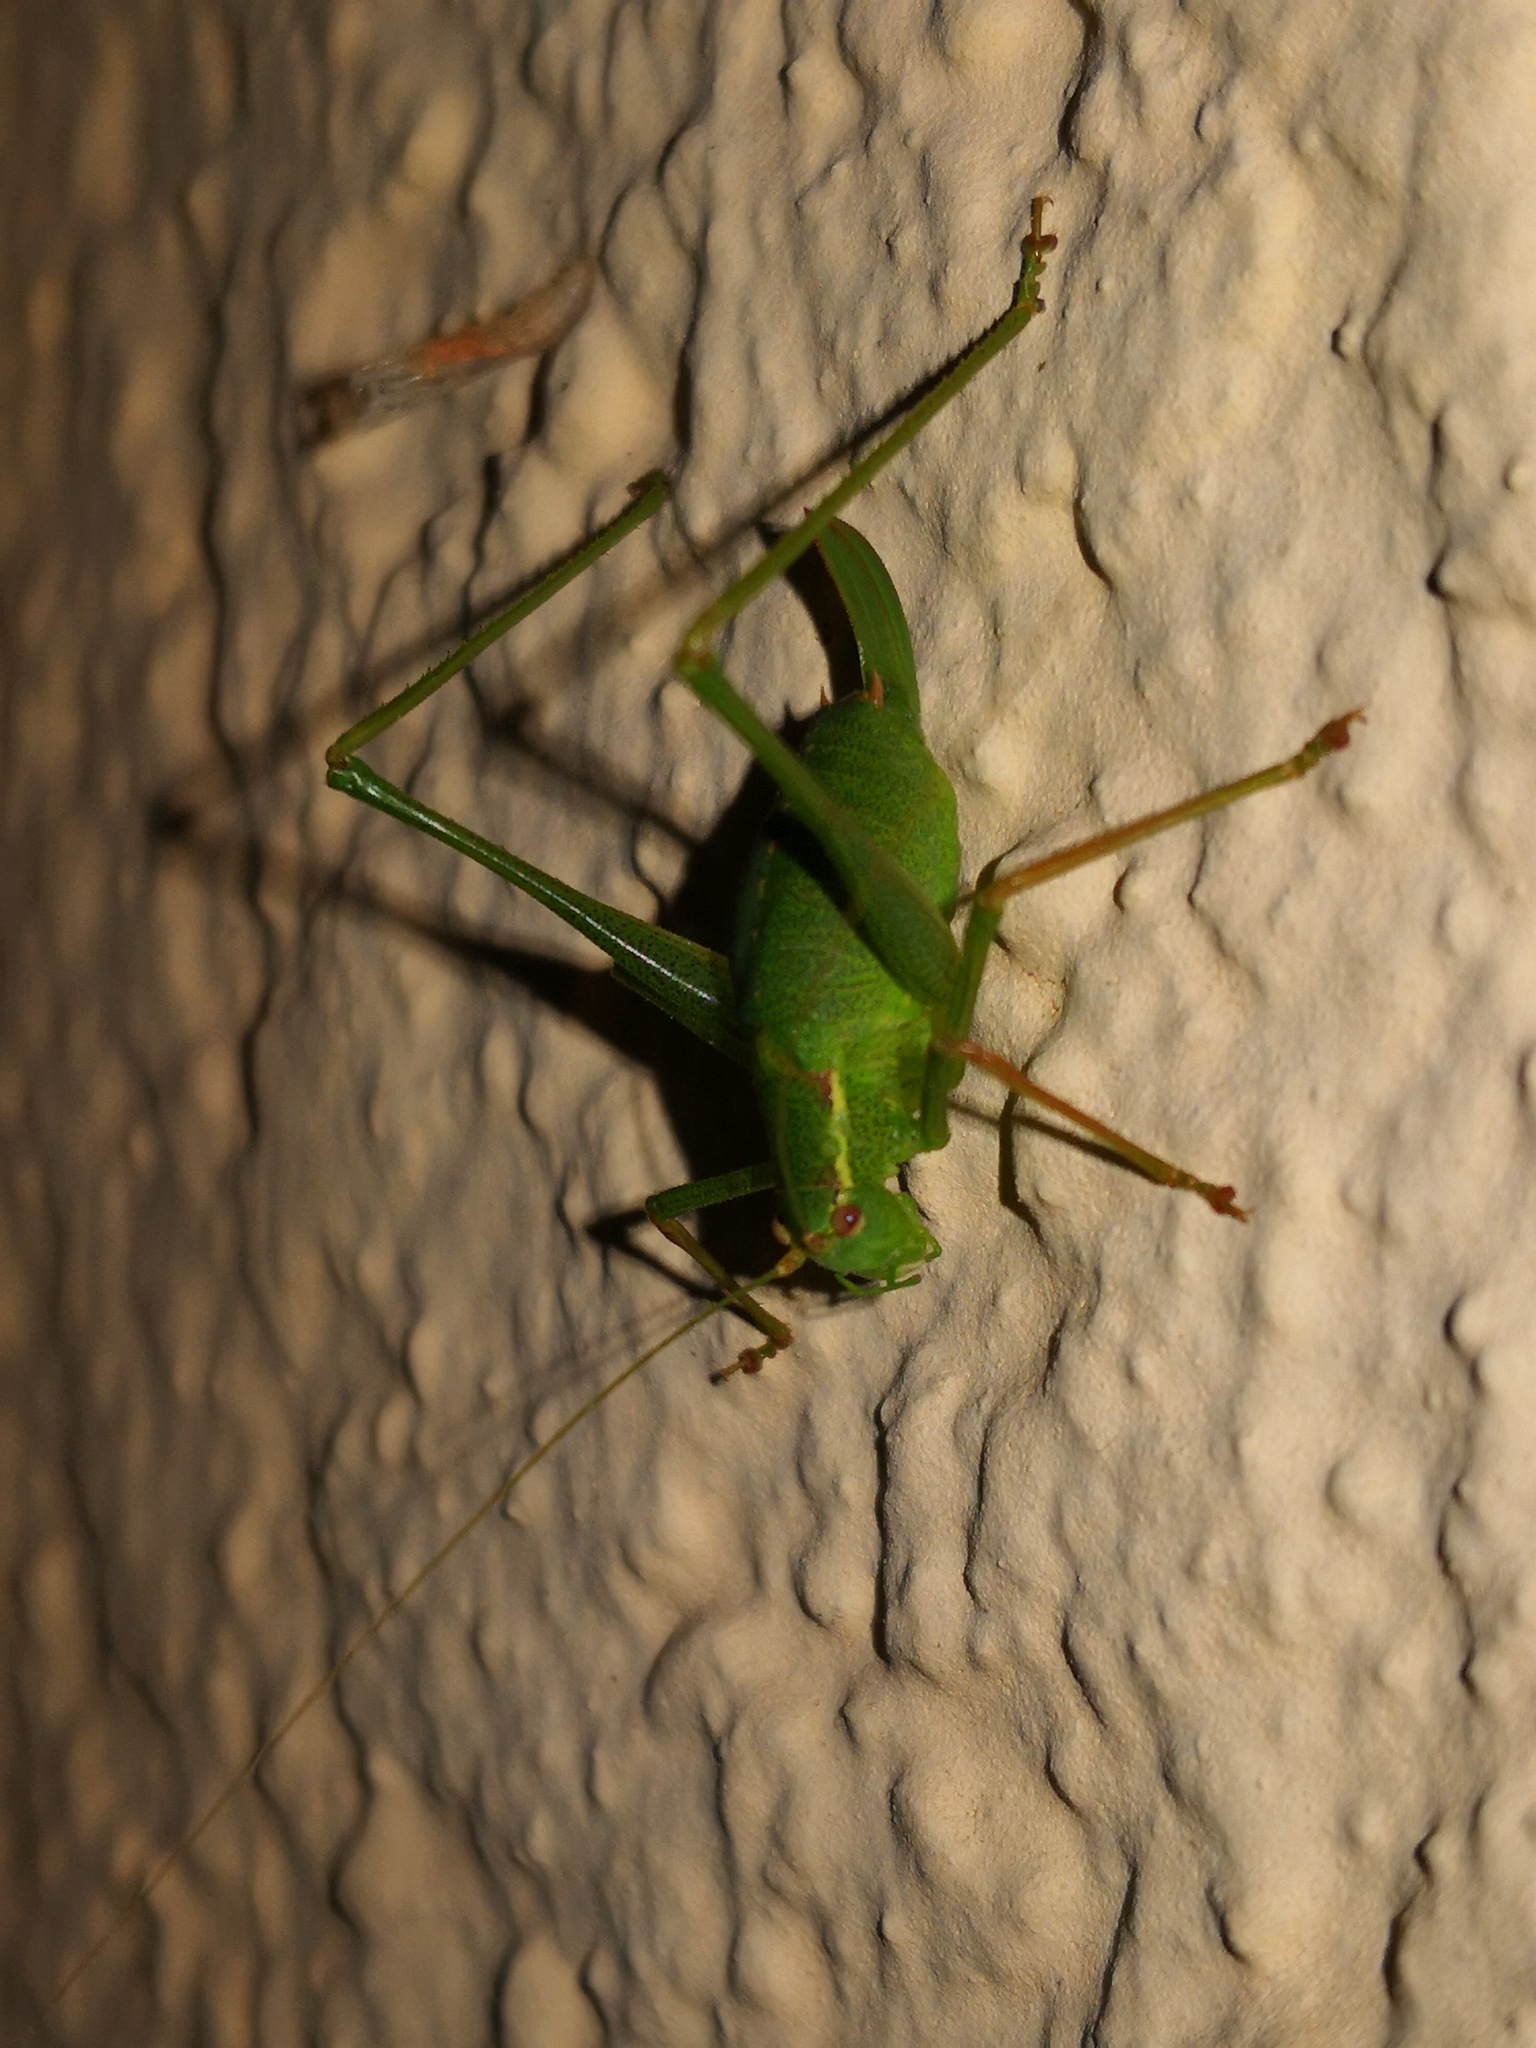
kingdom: Animalia
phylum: Arthropoda
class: Insecta
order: Orthoptera
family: Tettigoniidae
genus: Leptophyes
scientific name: Leptophyes punctatissima
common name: Speckled bush-cricket
